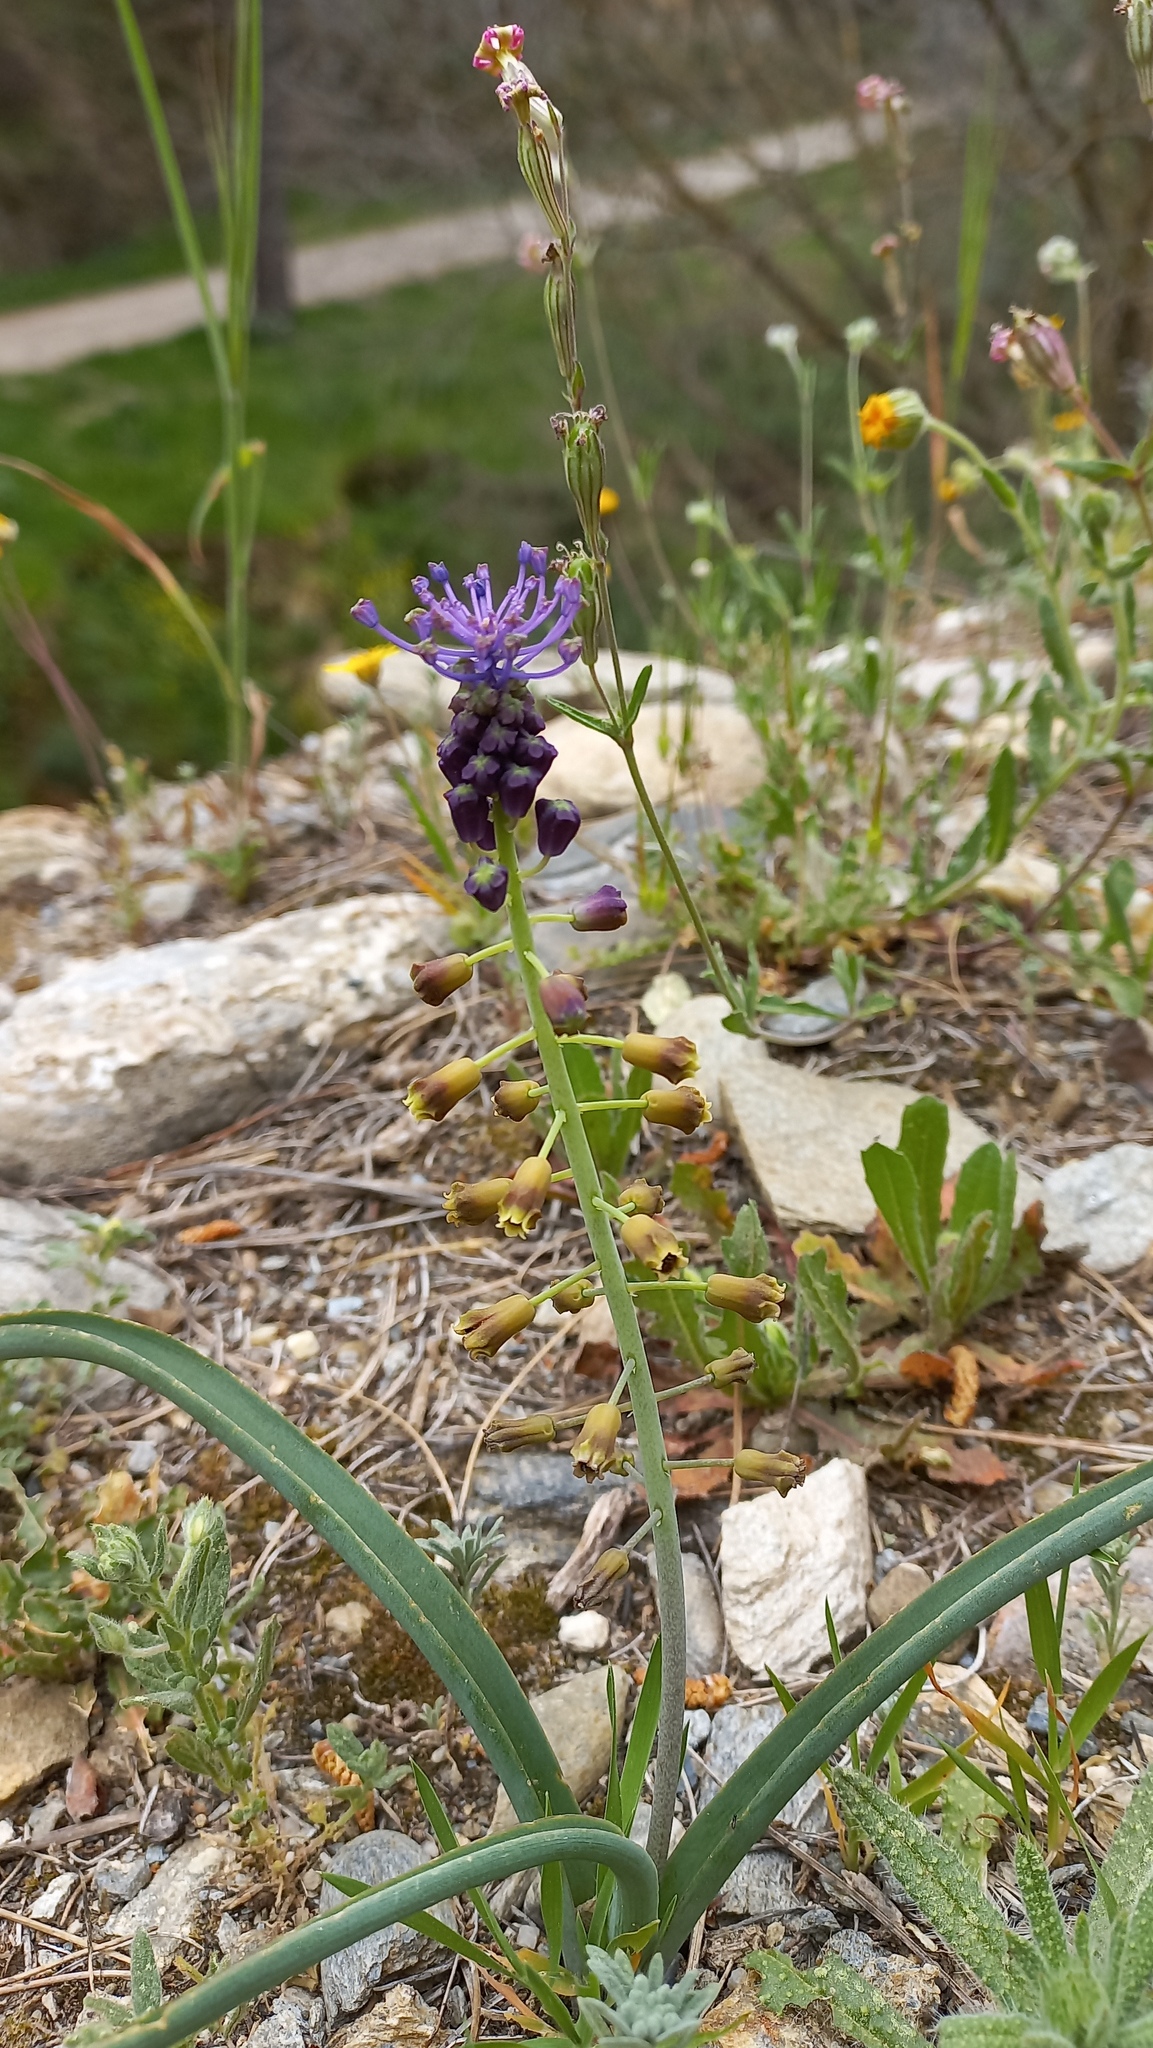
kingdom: Plantae
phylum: Tracheophyta
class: Liliopsida
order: Asparagales
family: Asparagaceae
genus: Muscari
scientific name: Muscari comosum
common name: Tassel hyacinth
